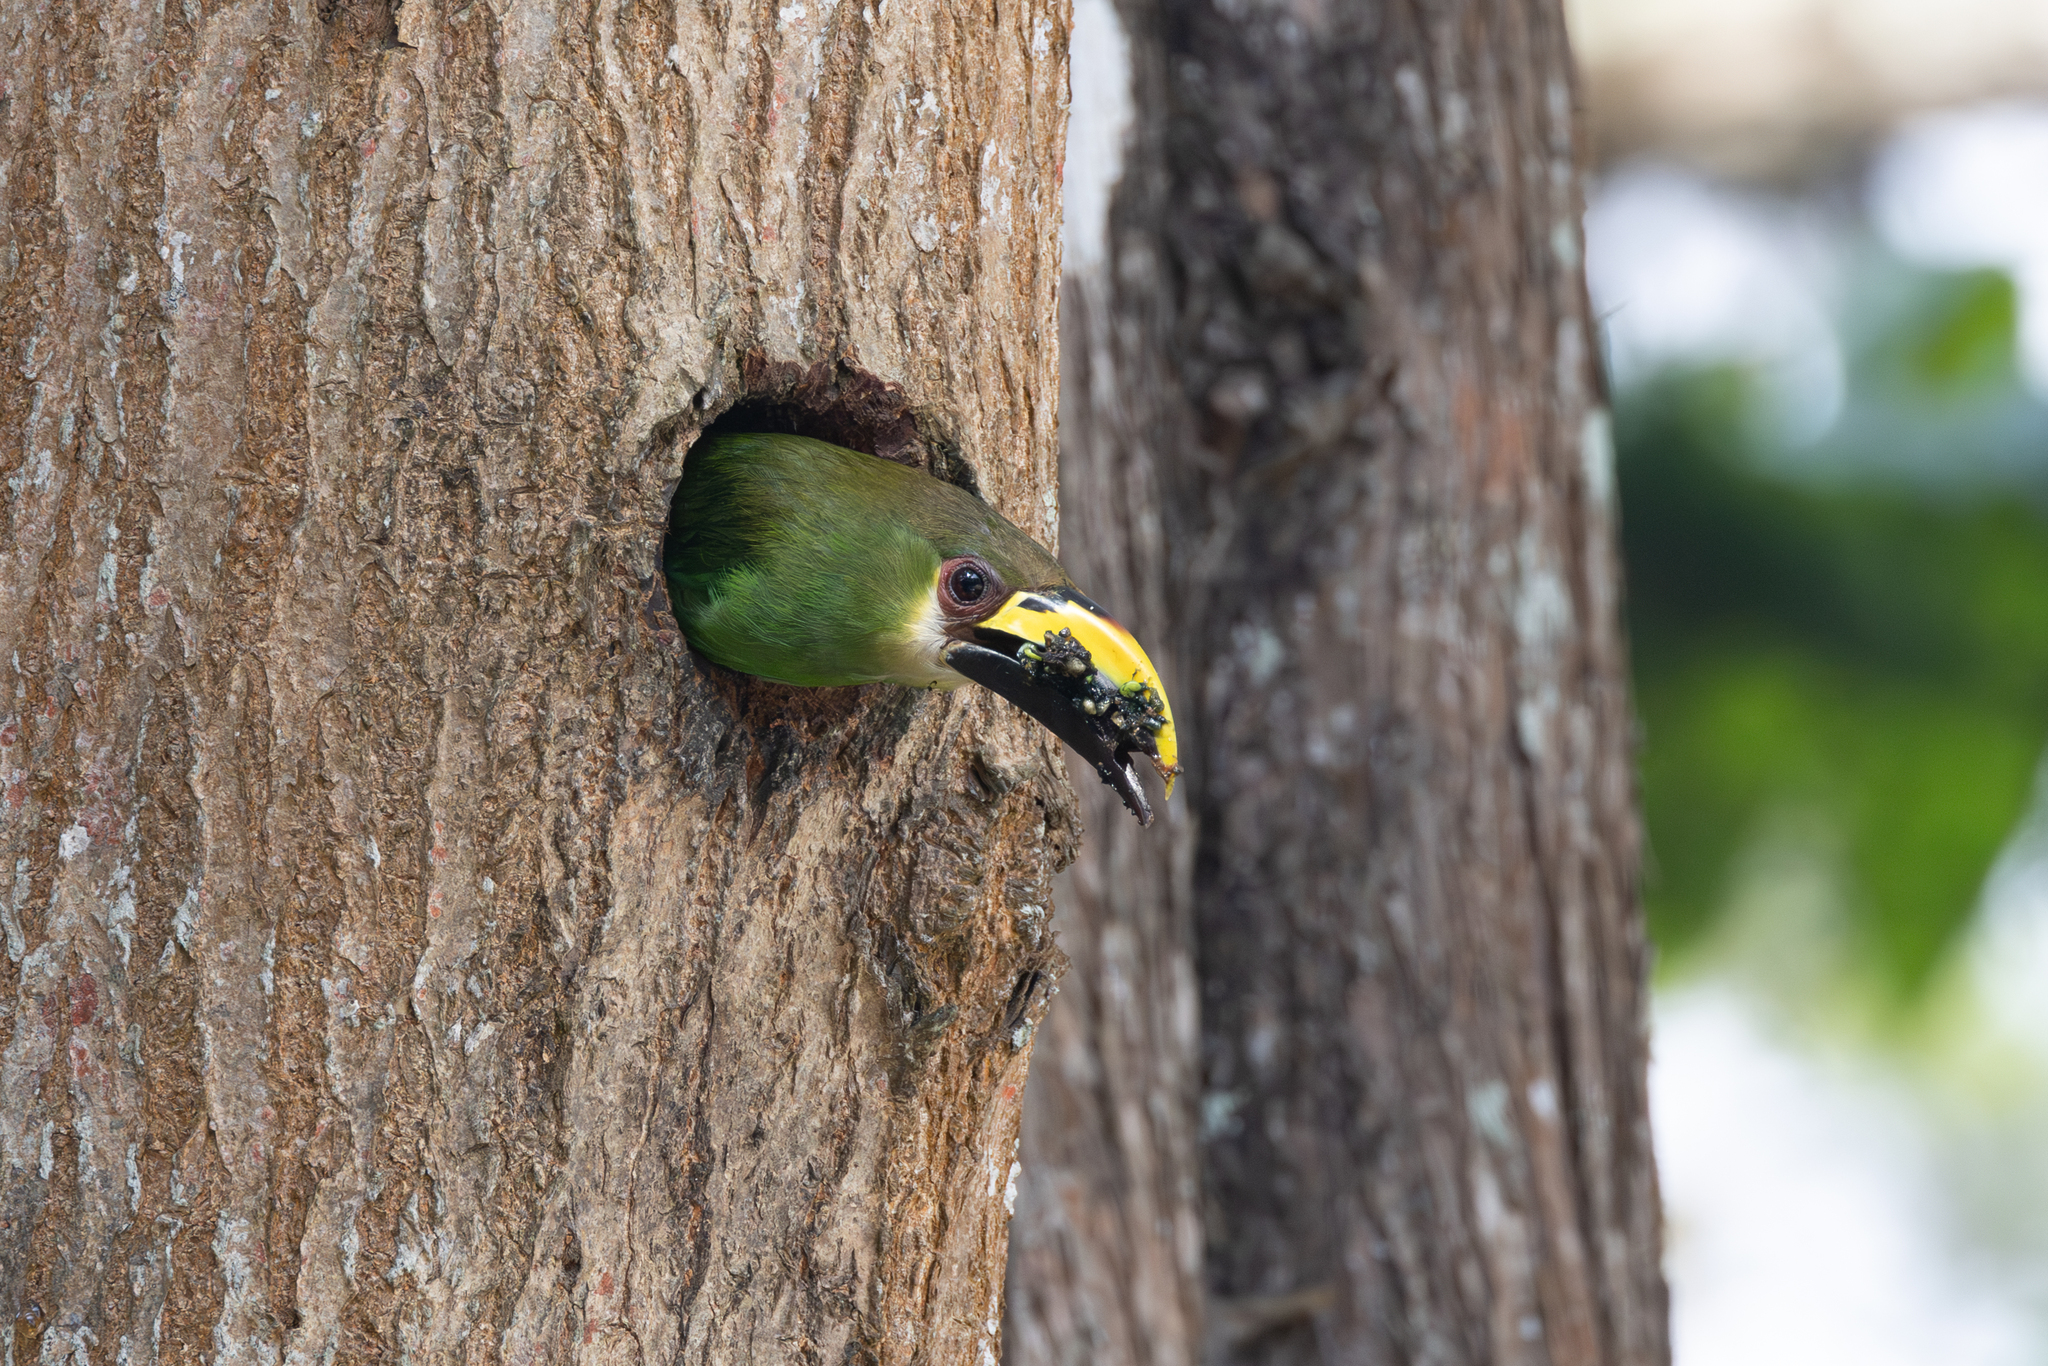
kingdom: Animalia
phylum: Chordata
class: Aves
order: Piciformes
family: Ramphastidae
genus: Aulacorhynchus
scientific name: Aulacorhynchus prasinus
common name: Emerald toucanet
